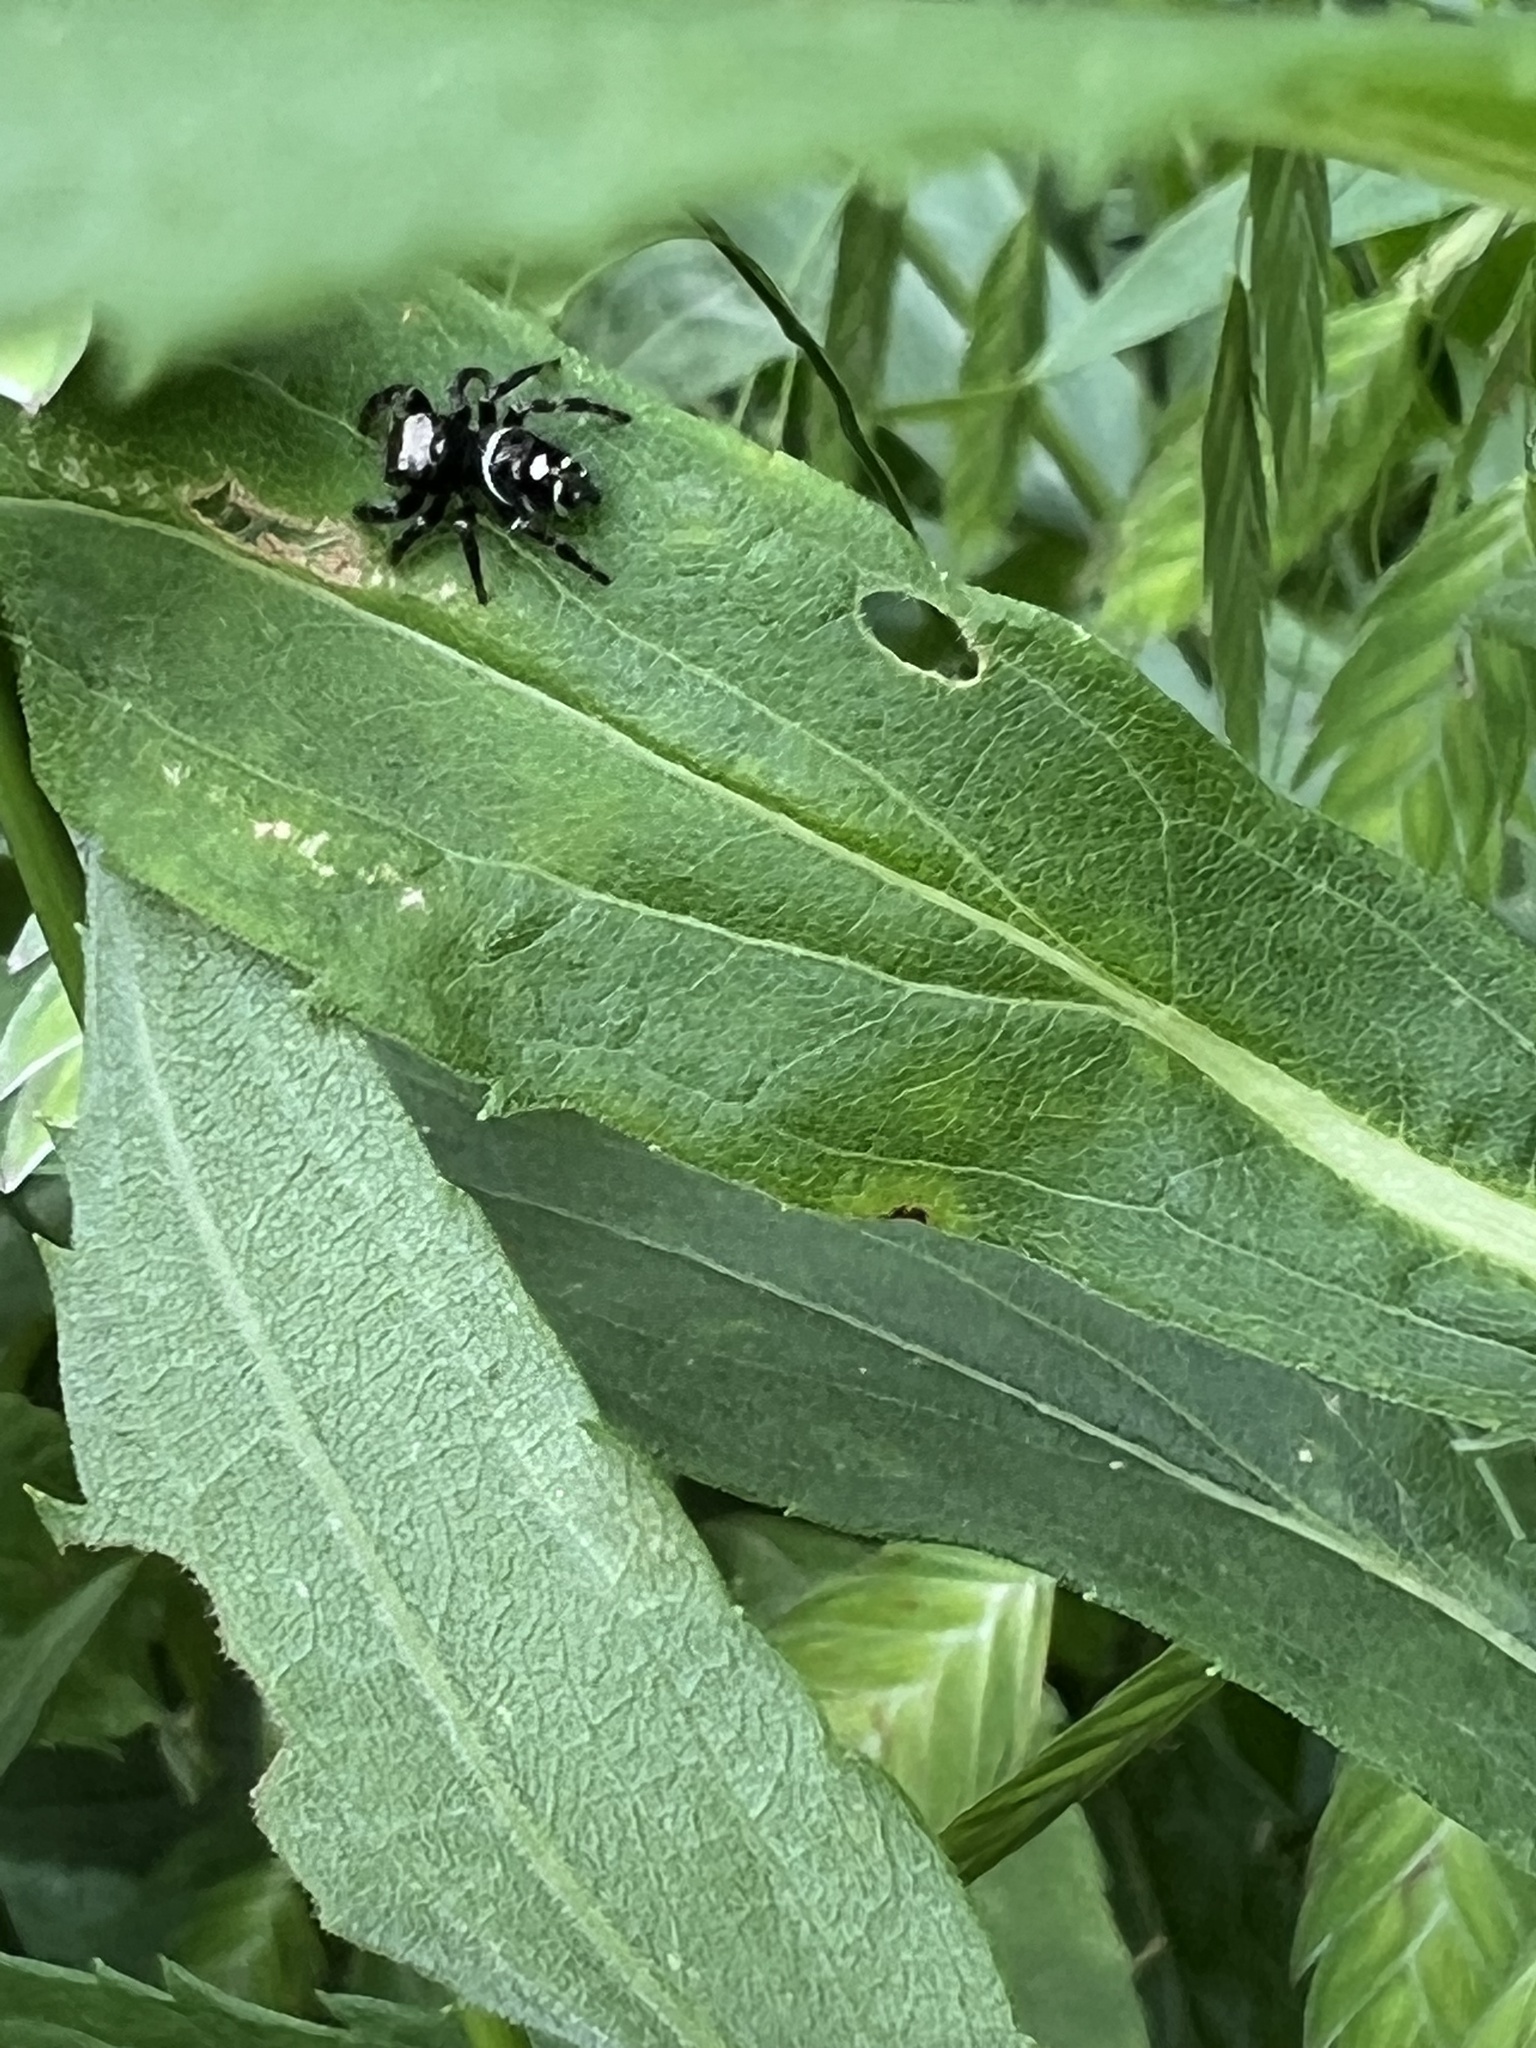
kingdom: Animalia
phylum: Arthropoda
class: Arachnida
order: Araneae
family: Salticidae
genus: Phidippus
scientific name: Phidippus audax
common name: Bold jumper
